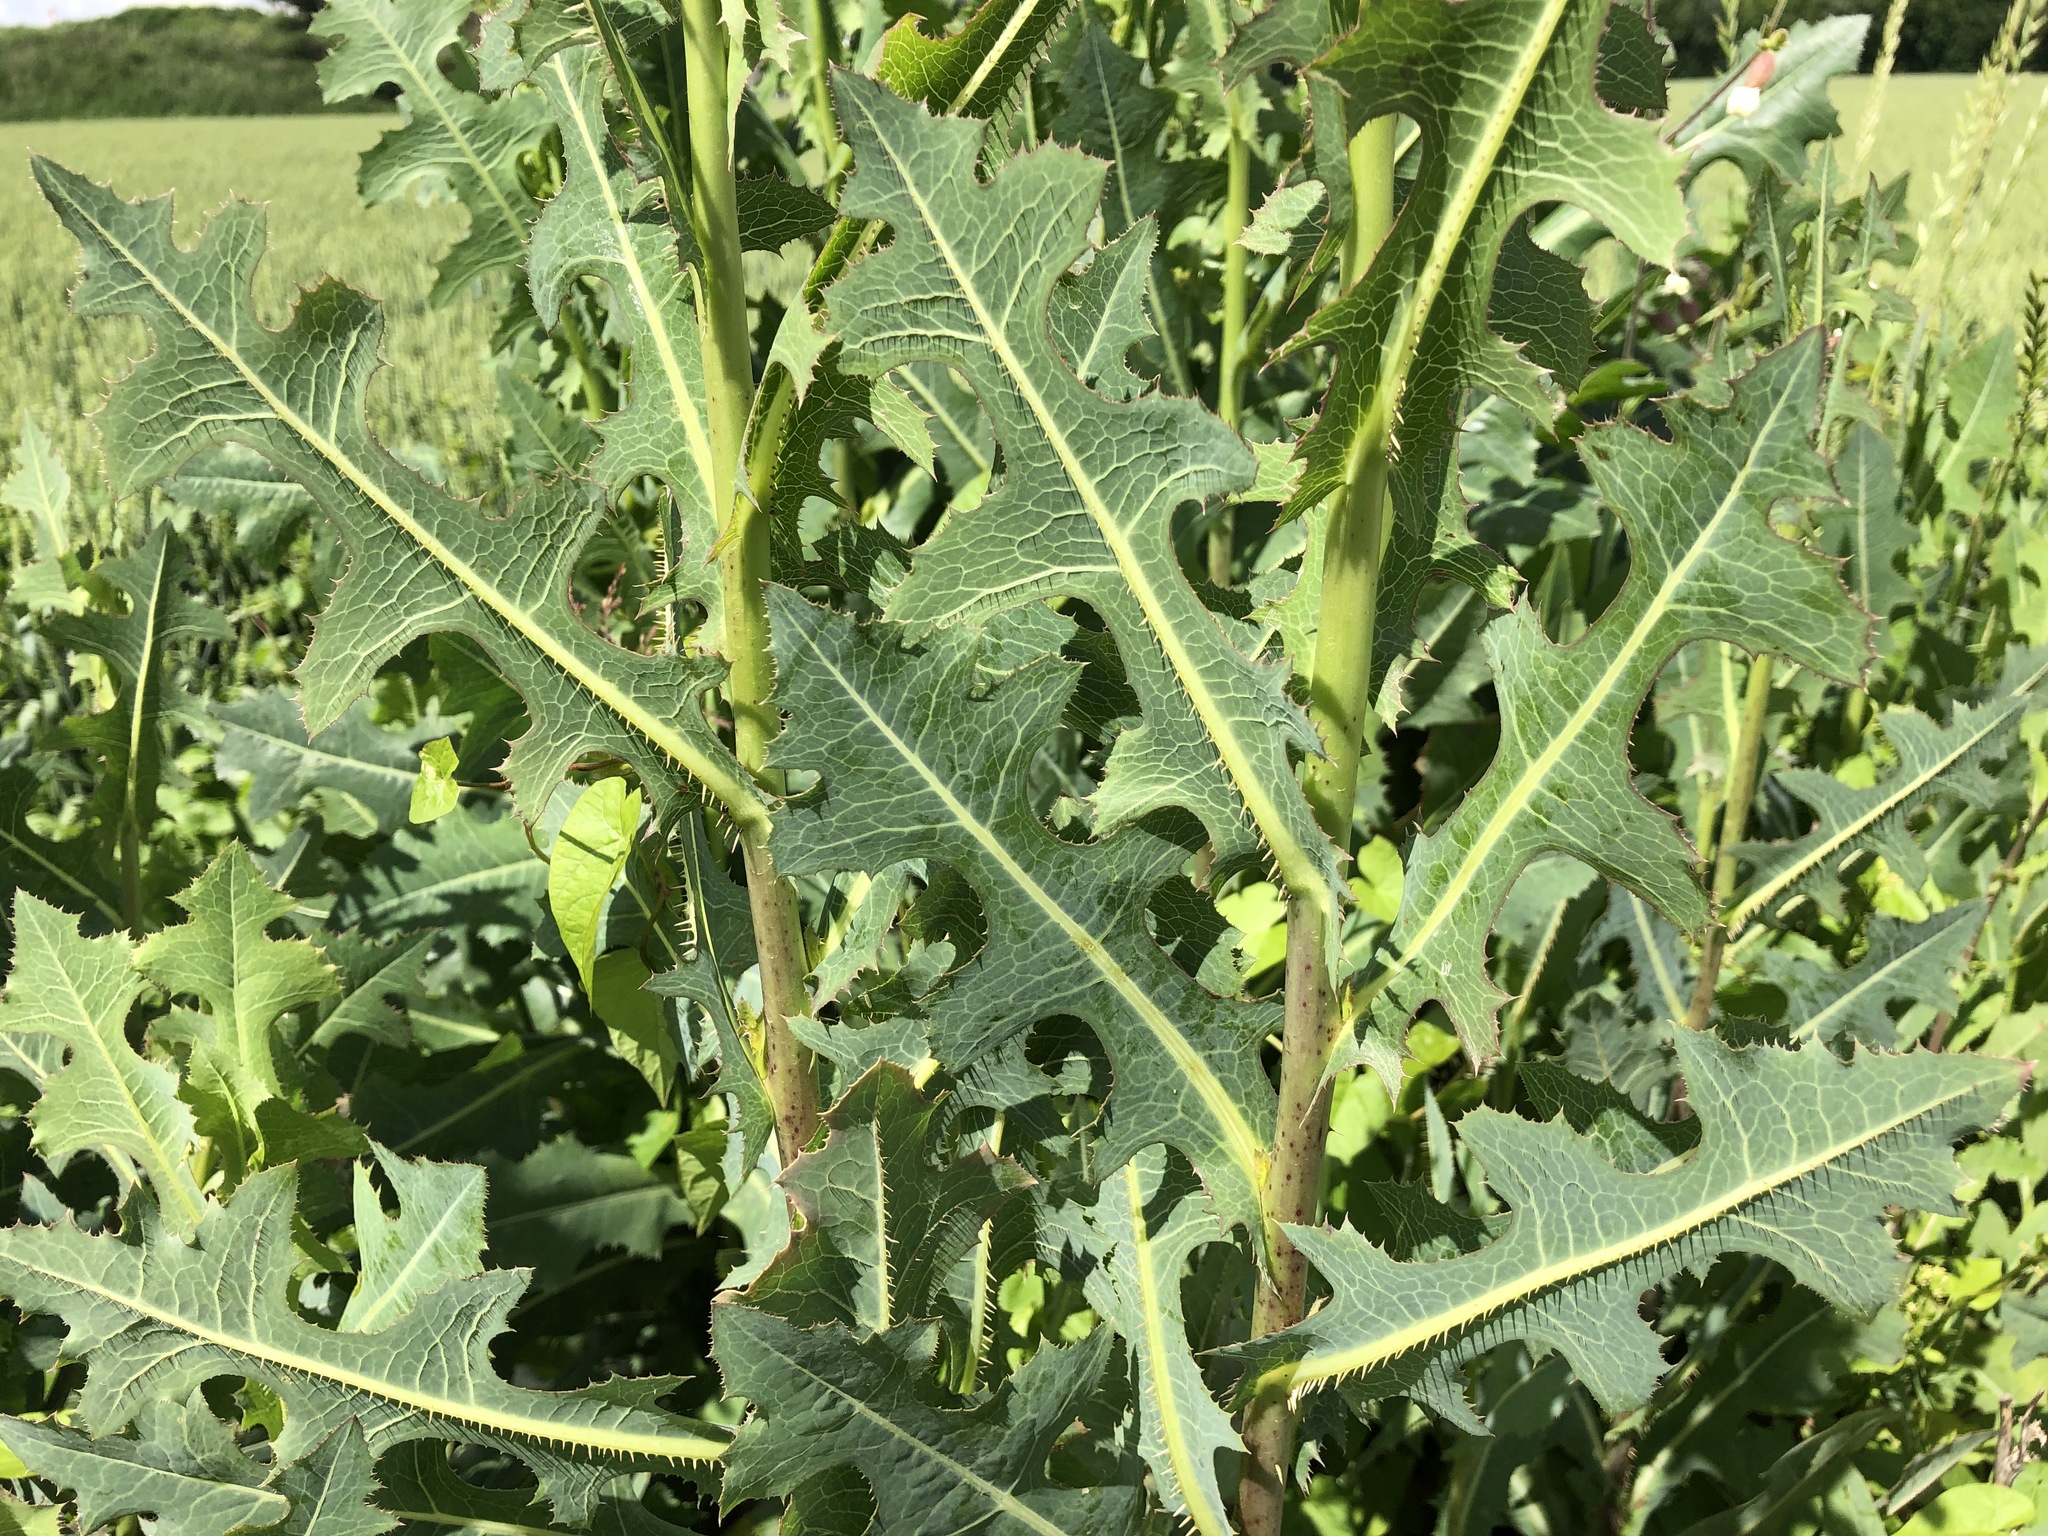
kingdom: Plantae
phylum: Tracheophyta
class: Magnoliopsida
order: Asterales
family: Asteraceae
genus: Lactuca
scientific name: Lactuca serriola
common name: Prickly lettuce
